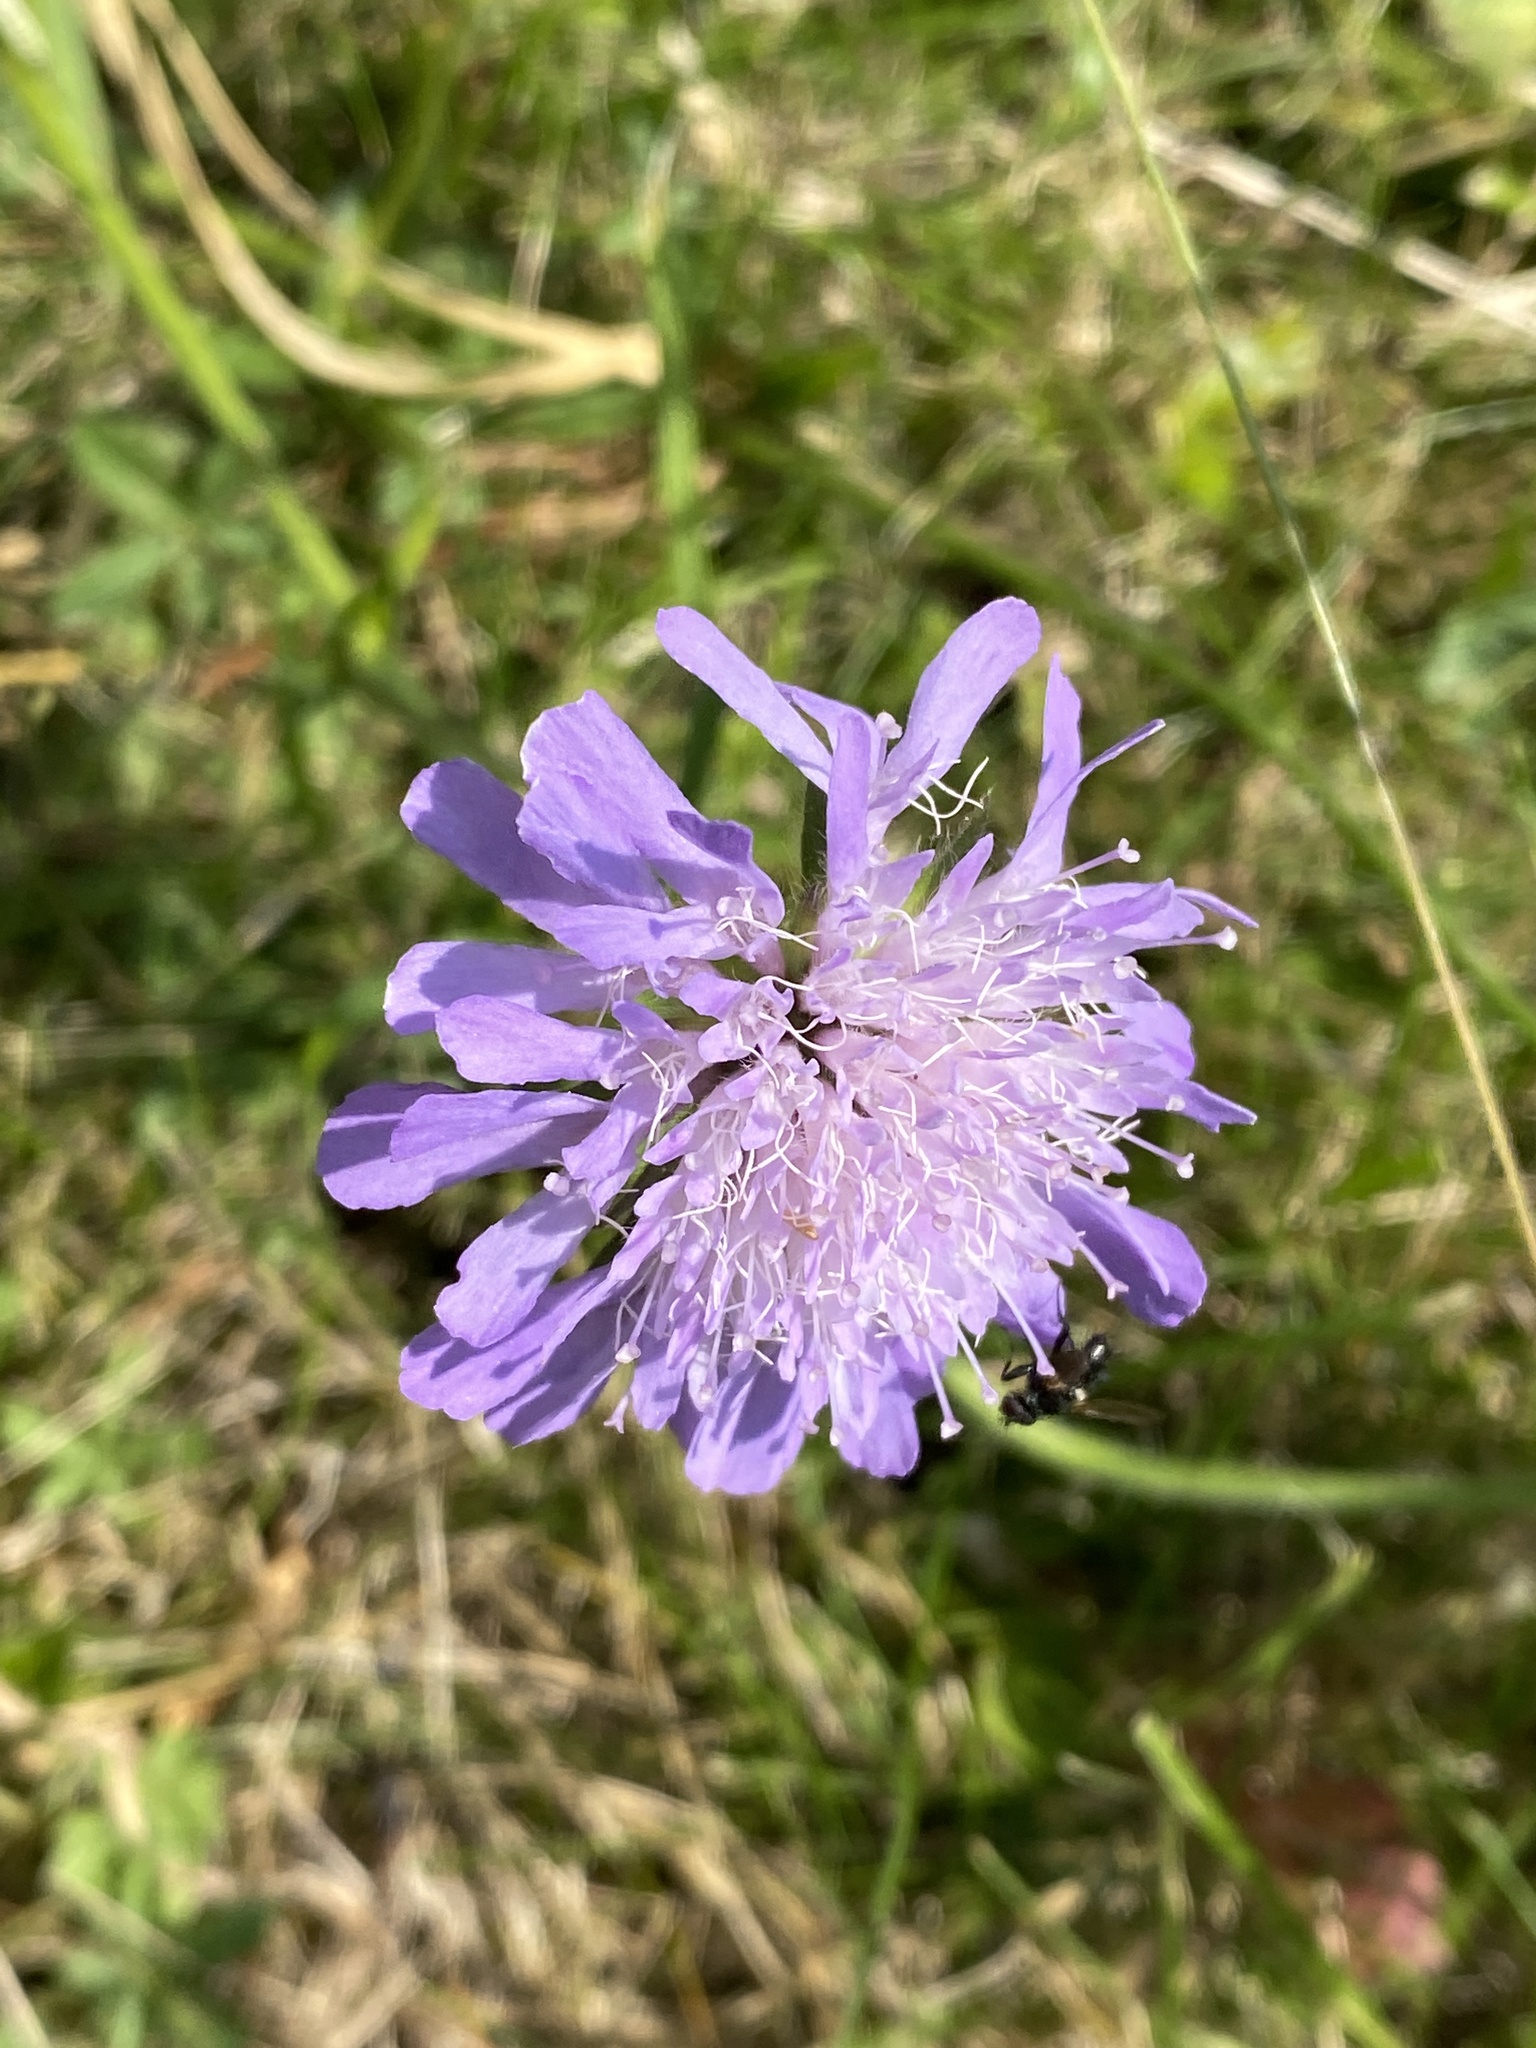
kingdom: Plantae
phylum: Tracheophyta
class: Magnoliopsida
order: Dipsacales
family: Caprifoliaceae
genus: Knautia
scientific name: Knautia arvensis
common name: Field scabiosa
